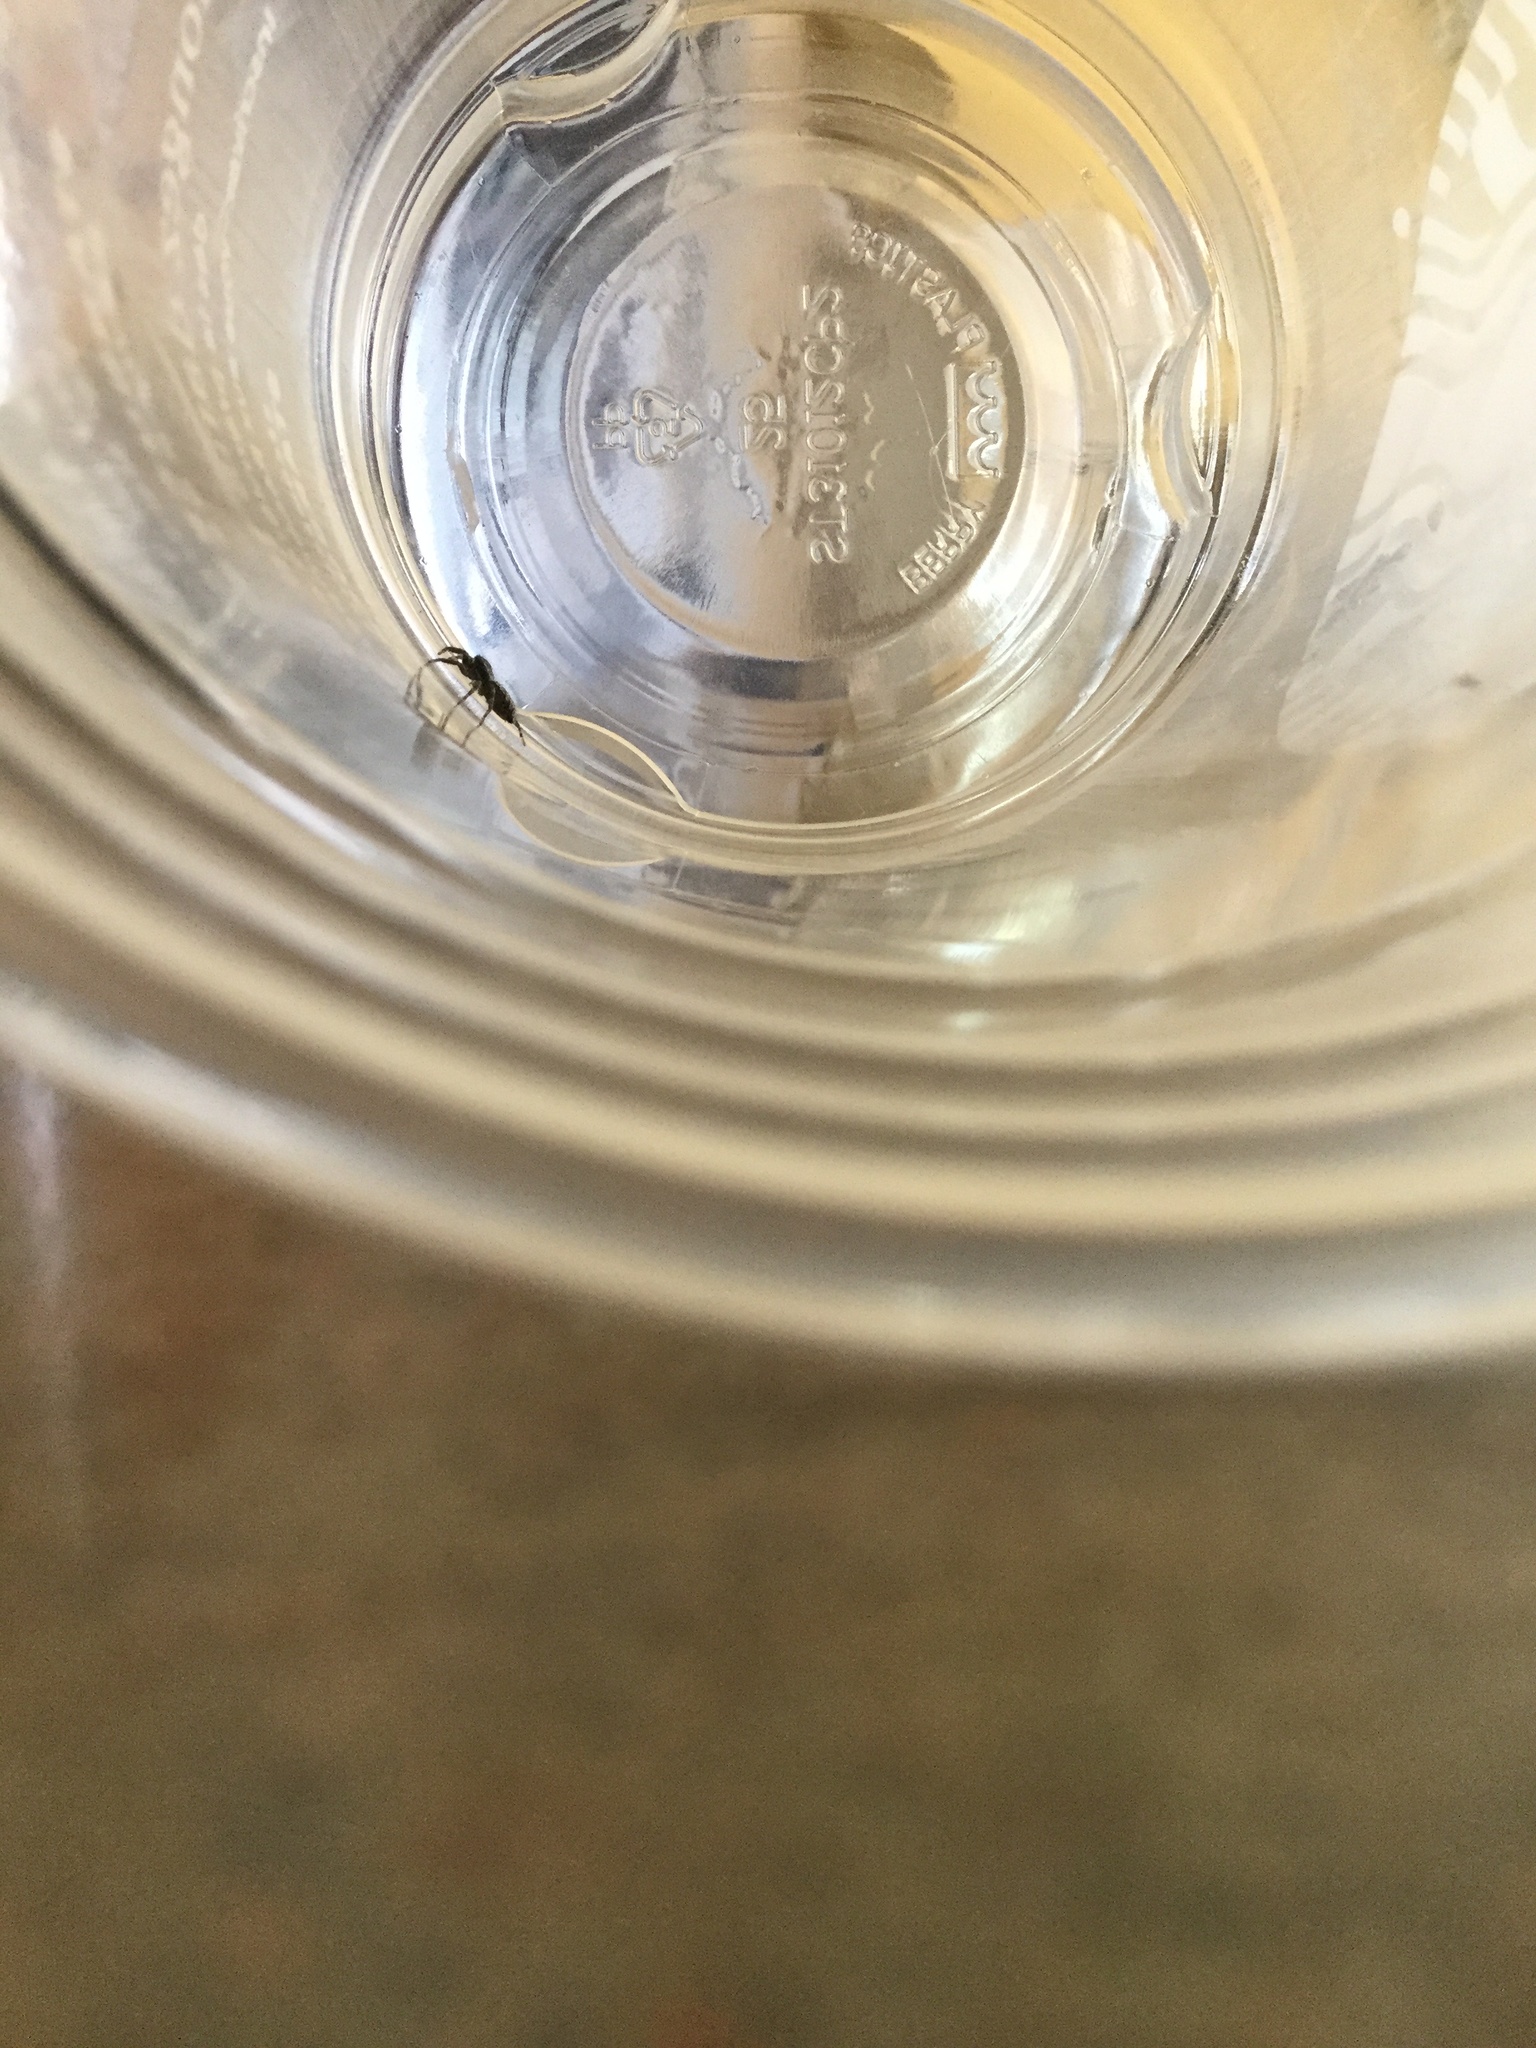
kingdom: Animalia
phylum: Arthropoda
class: Arachnida
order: Araneae
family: Salticidae
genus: Platycryptus
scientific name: Platycryptus californicus
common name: Jumping spiders
